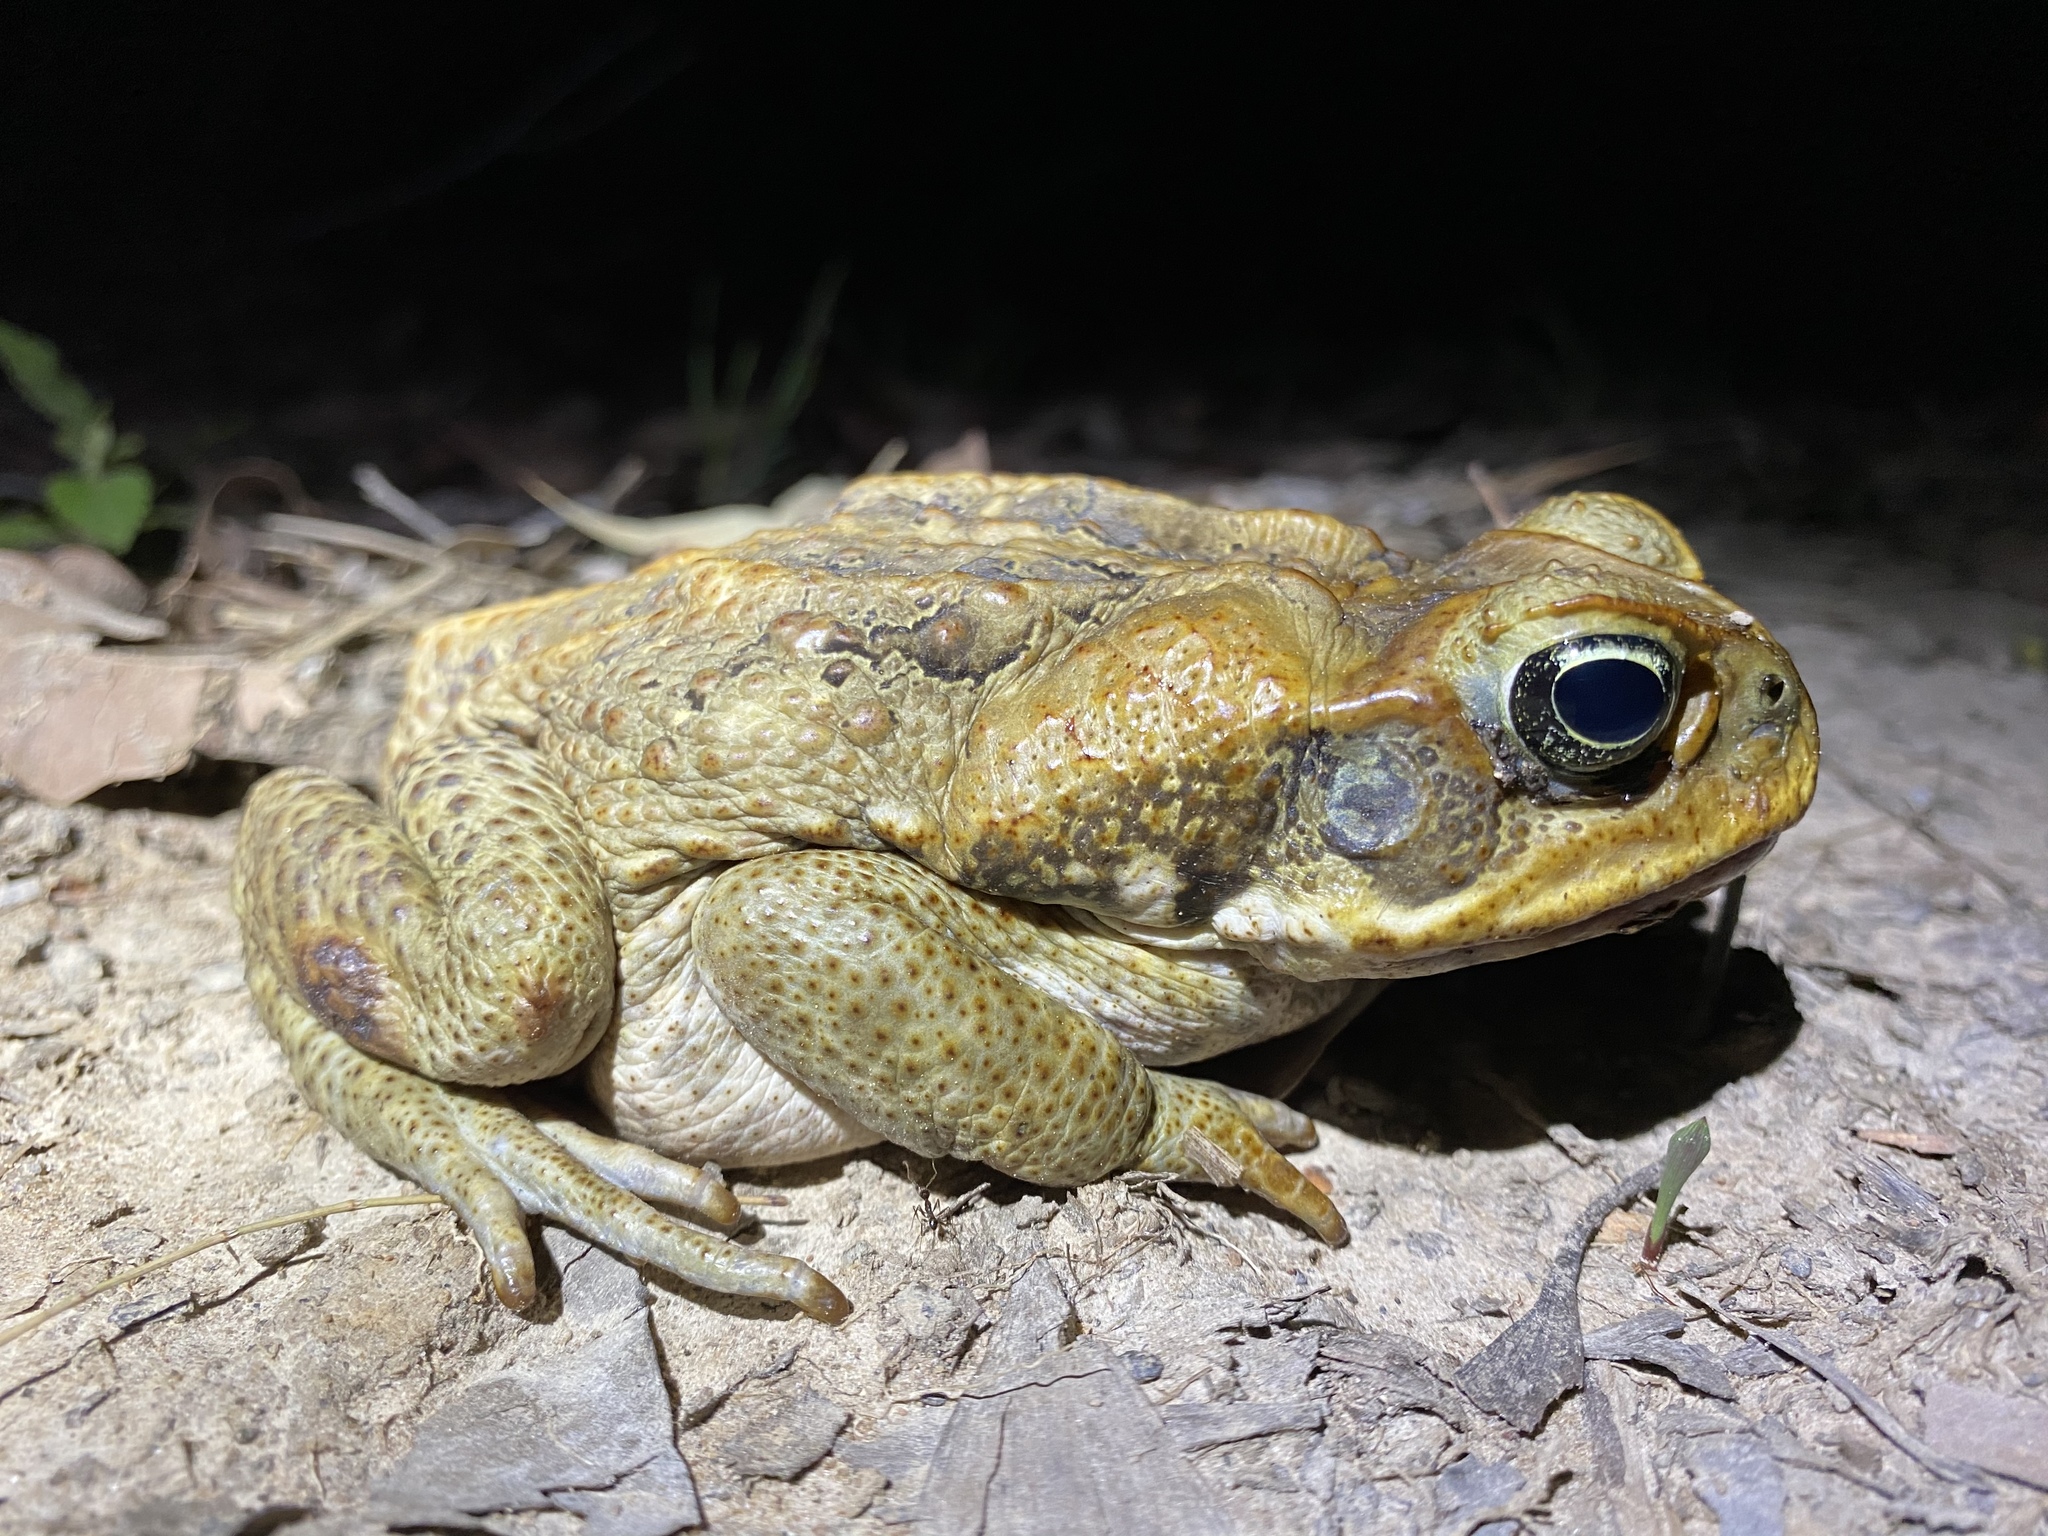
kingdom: Animalia
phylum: Chordata
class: Amphibia
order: Anura
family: Bufonidae
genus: Rhinella
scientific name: Rhinella marina
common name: Cane toad
